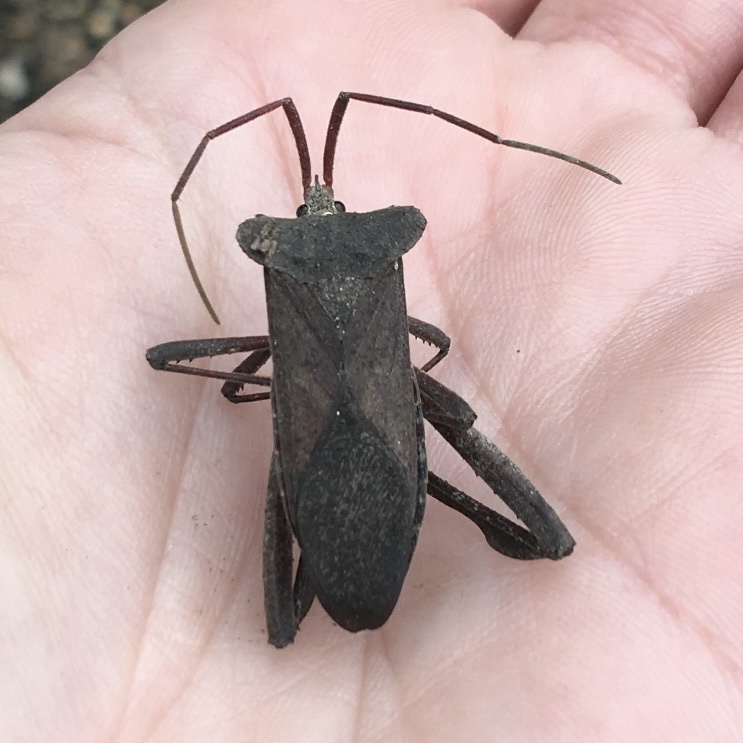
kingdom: Animalia
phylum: Arthropoda
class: Insecta
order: Hemiptera
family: Coreidae
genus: Acanthocephala
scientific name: Acanthocephala declivis
